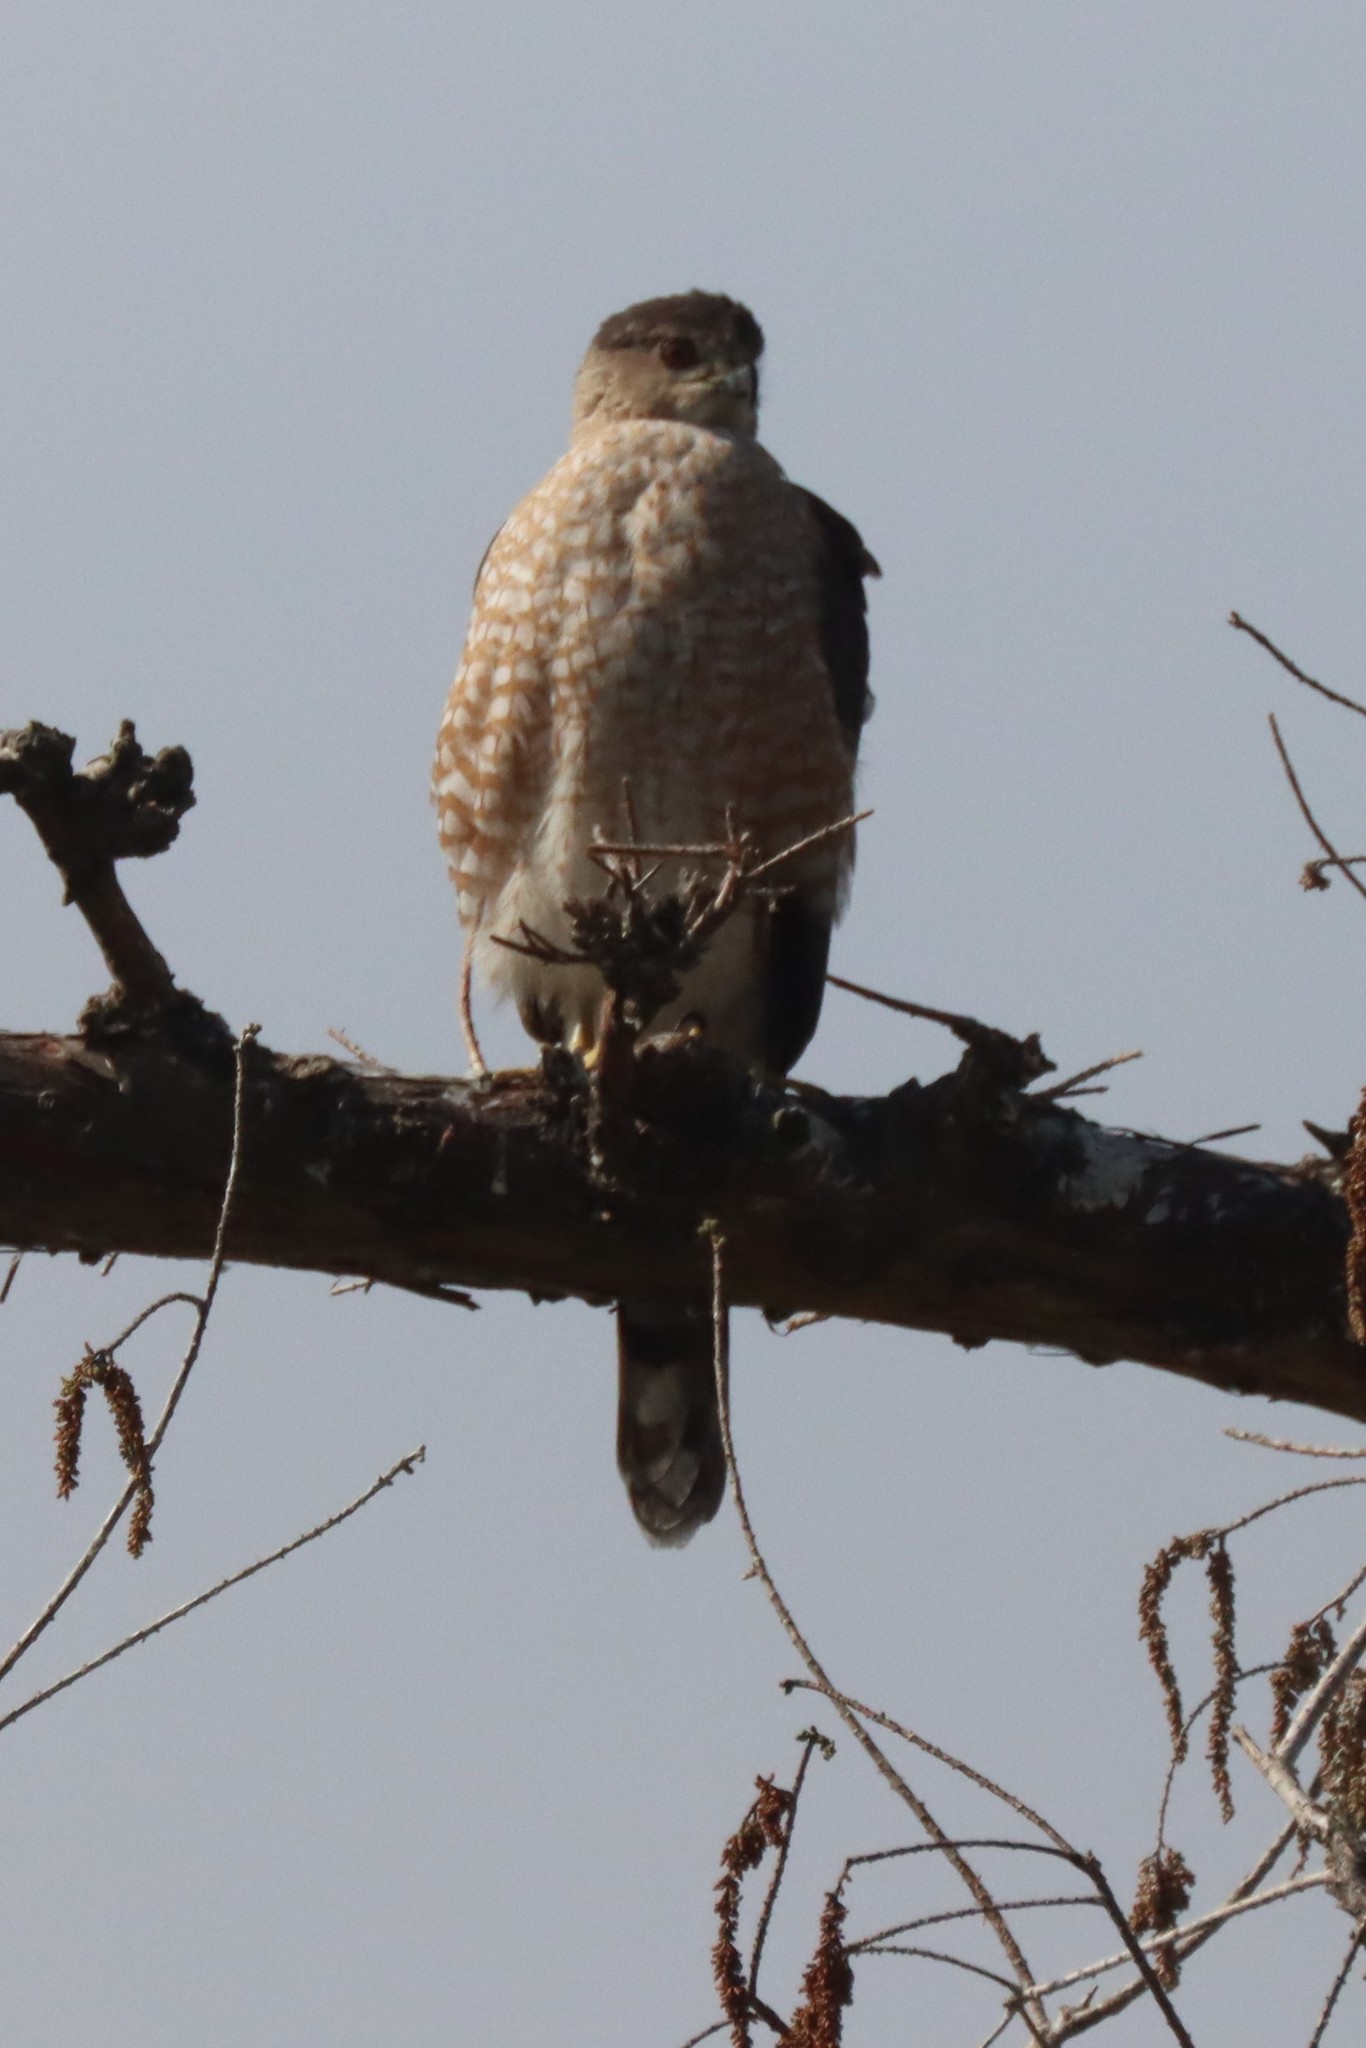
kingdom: Animalia
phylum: Chordata
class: Aves
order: Accipitriformes
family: Accipitridae
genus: Accipiter
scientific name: Accipiter cooperii
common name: Cooper's hawk
